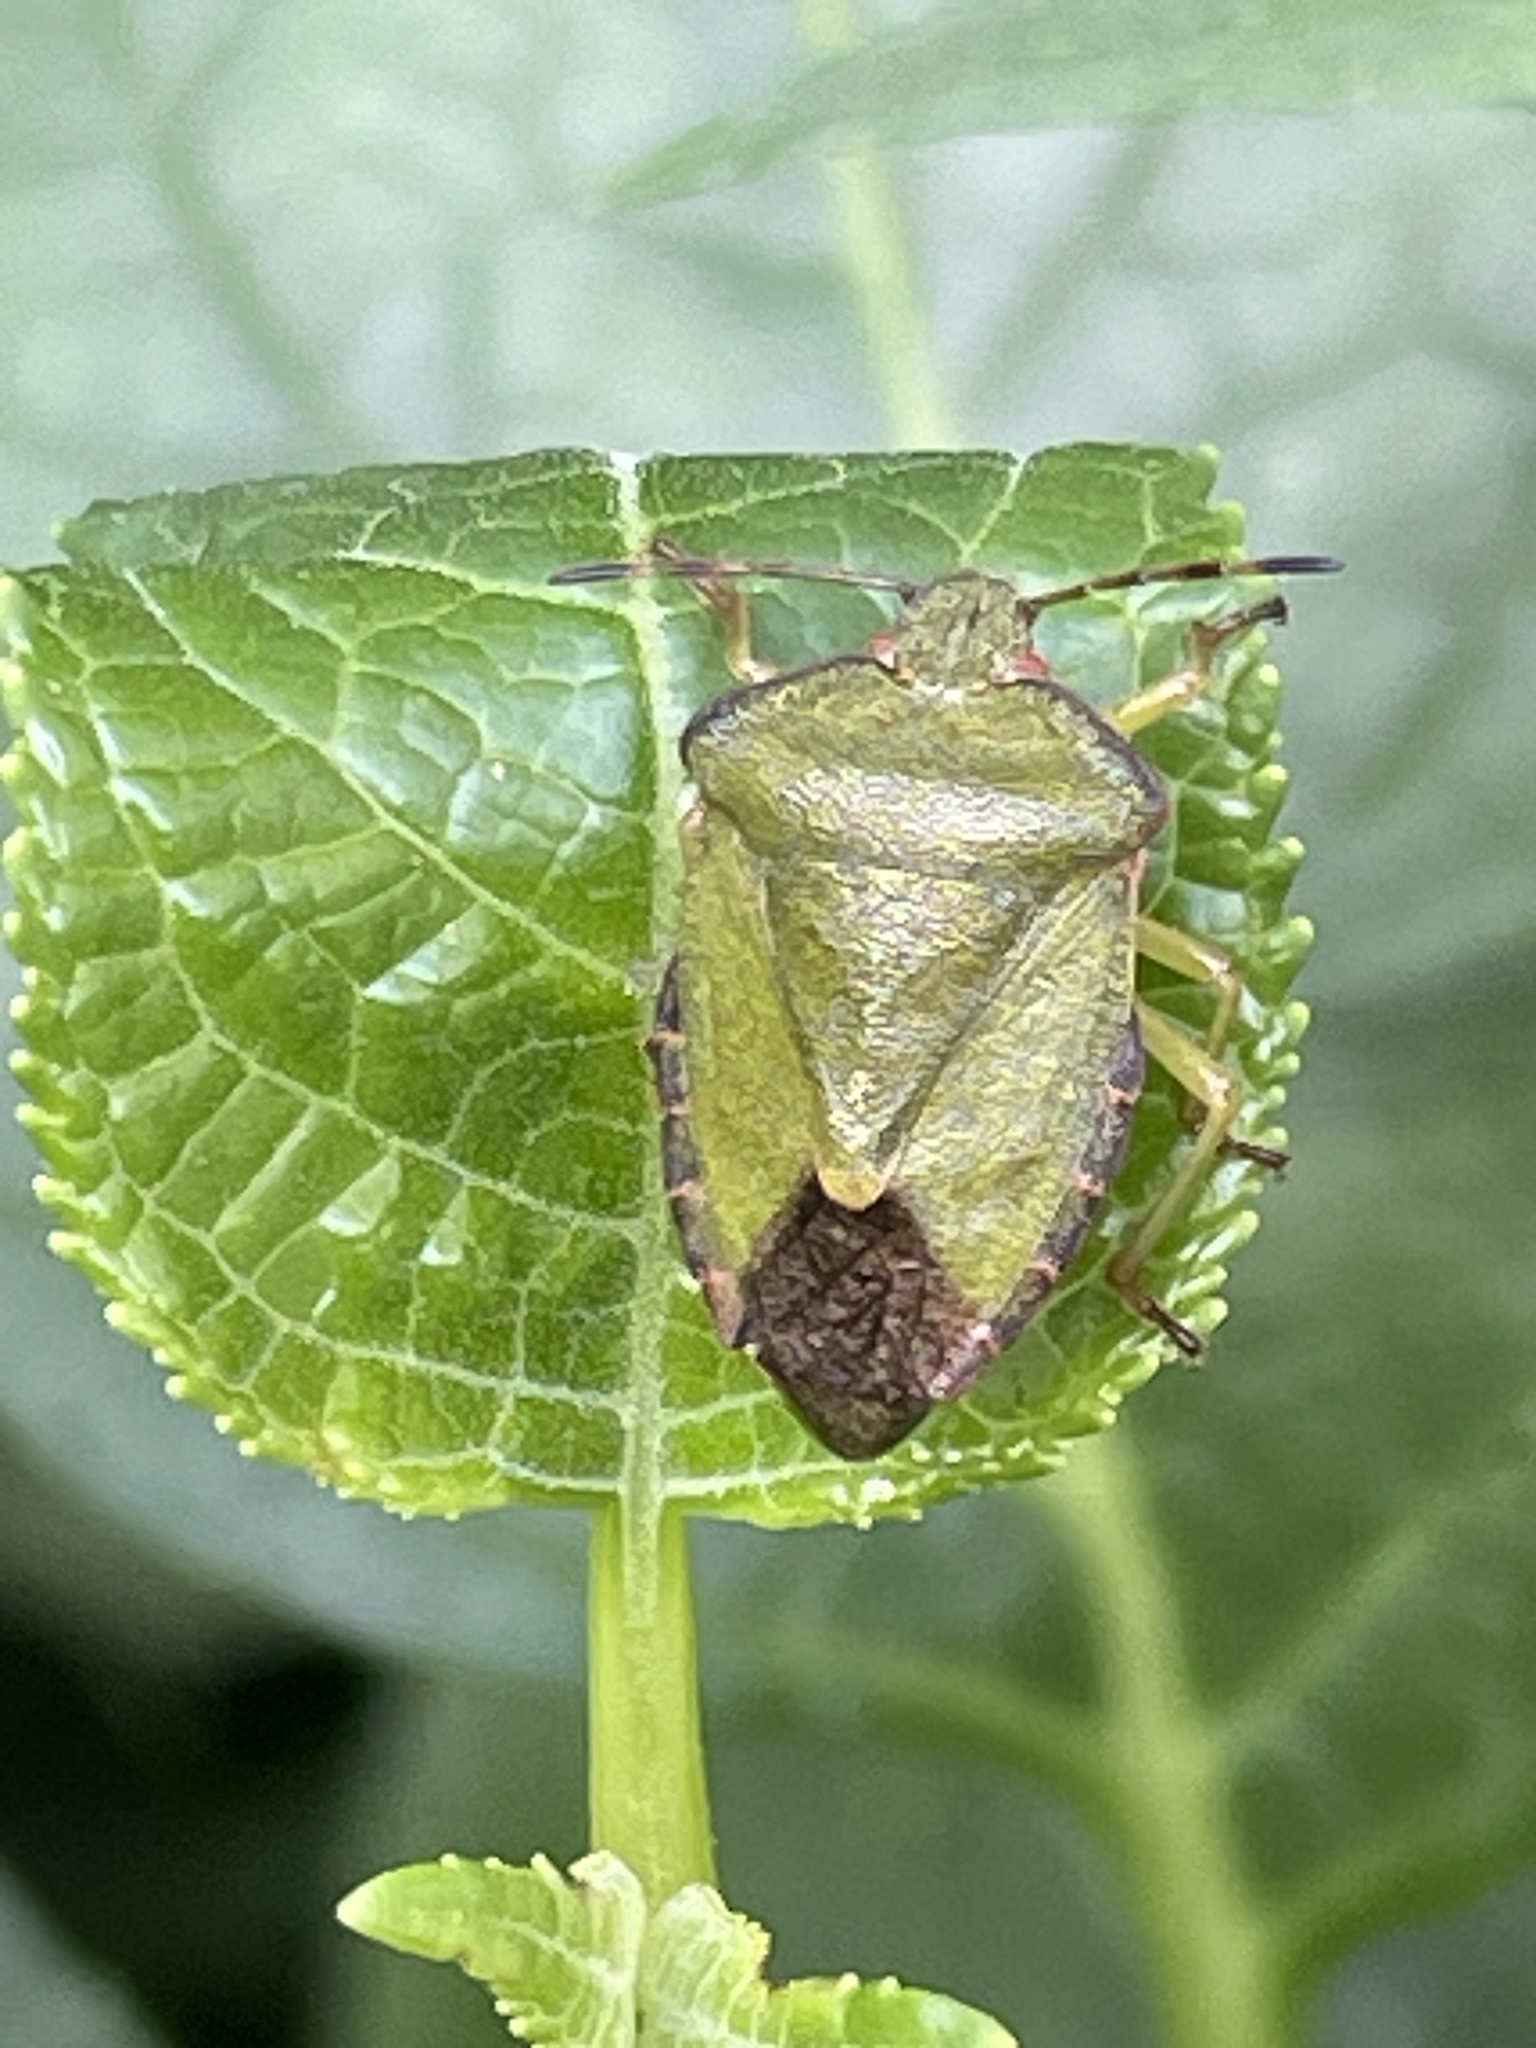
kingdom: Animalia
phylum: Arthropoda
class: Insecta
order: Hemiptera
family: Pentatomidae
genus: Palomena
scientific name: Palomena prasina
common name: Green shieldbug
